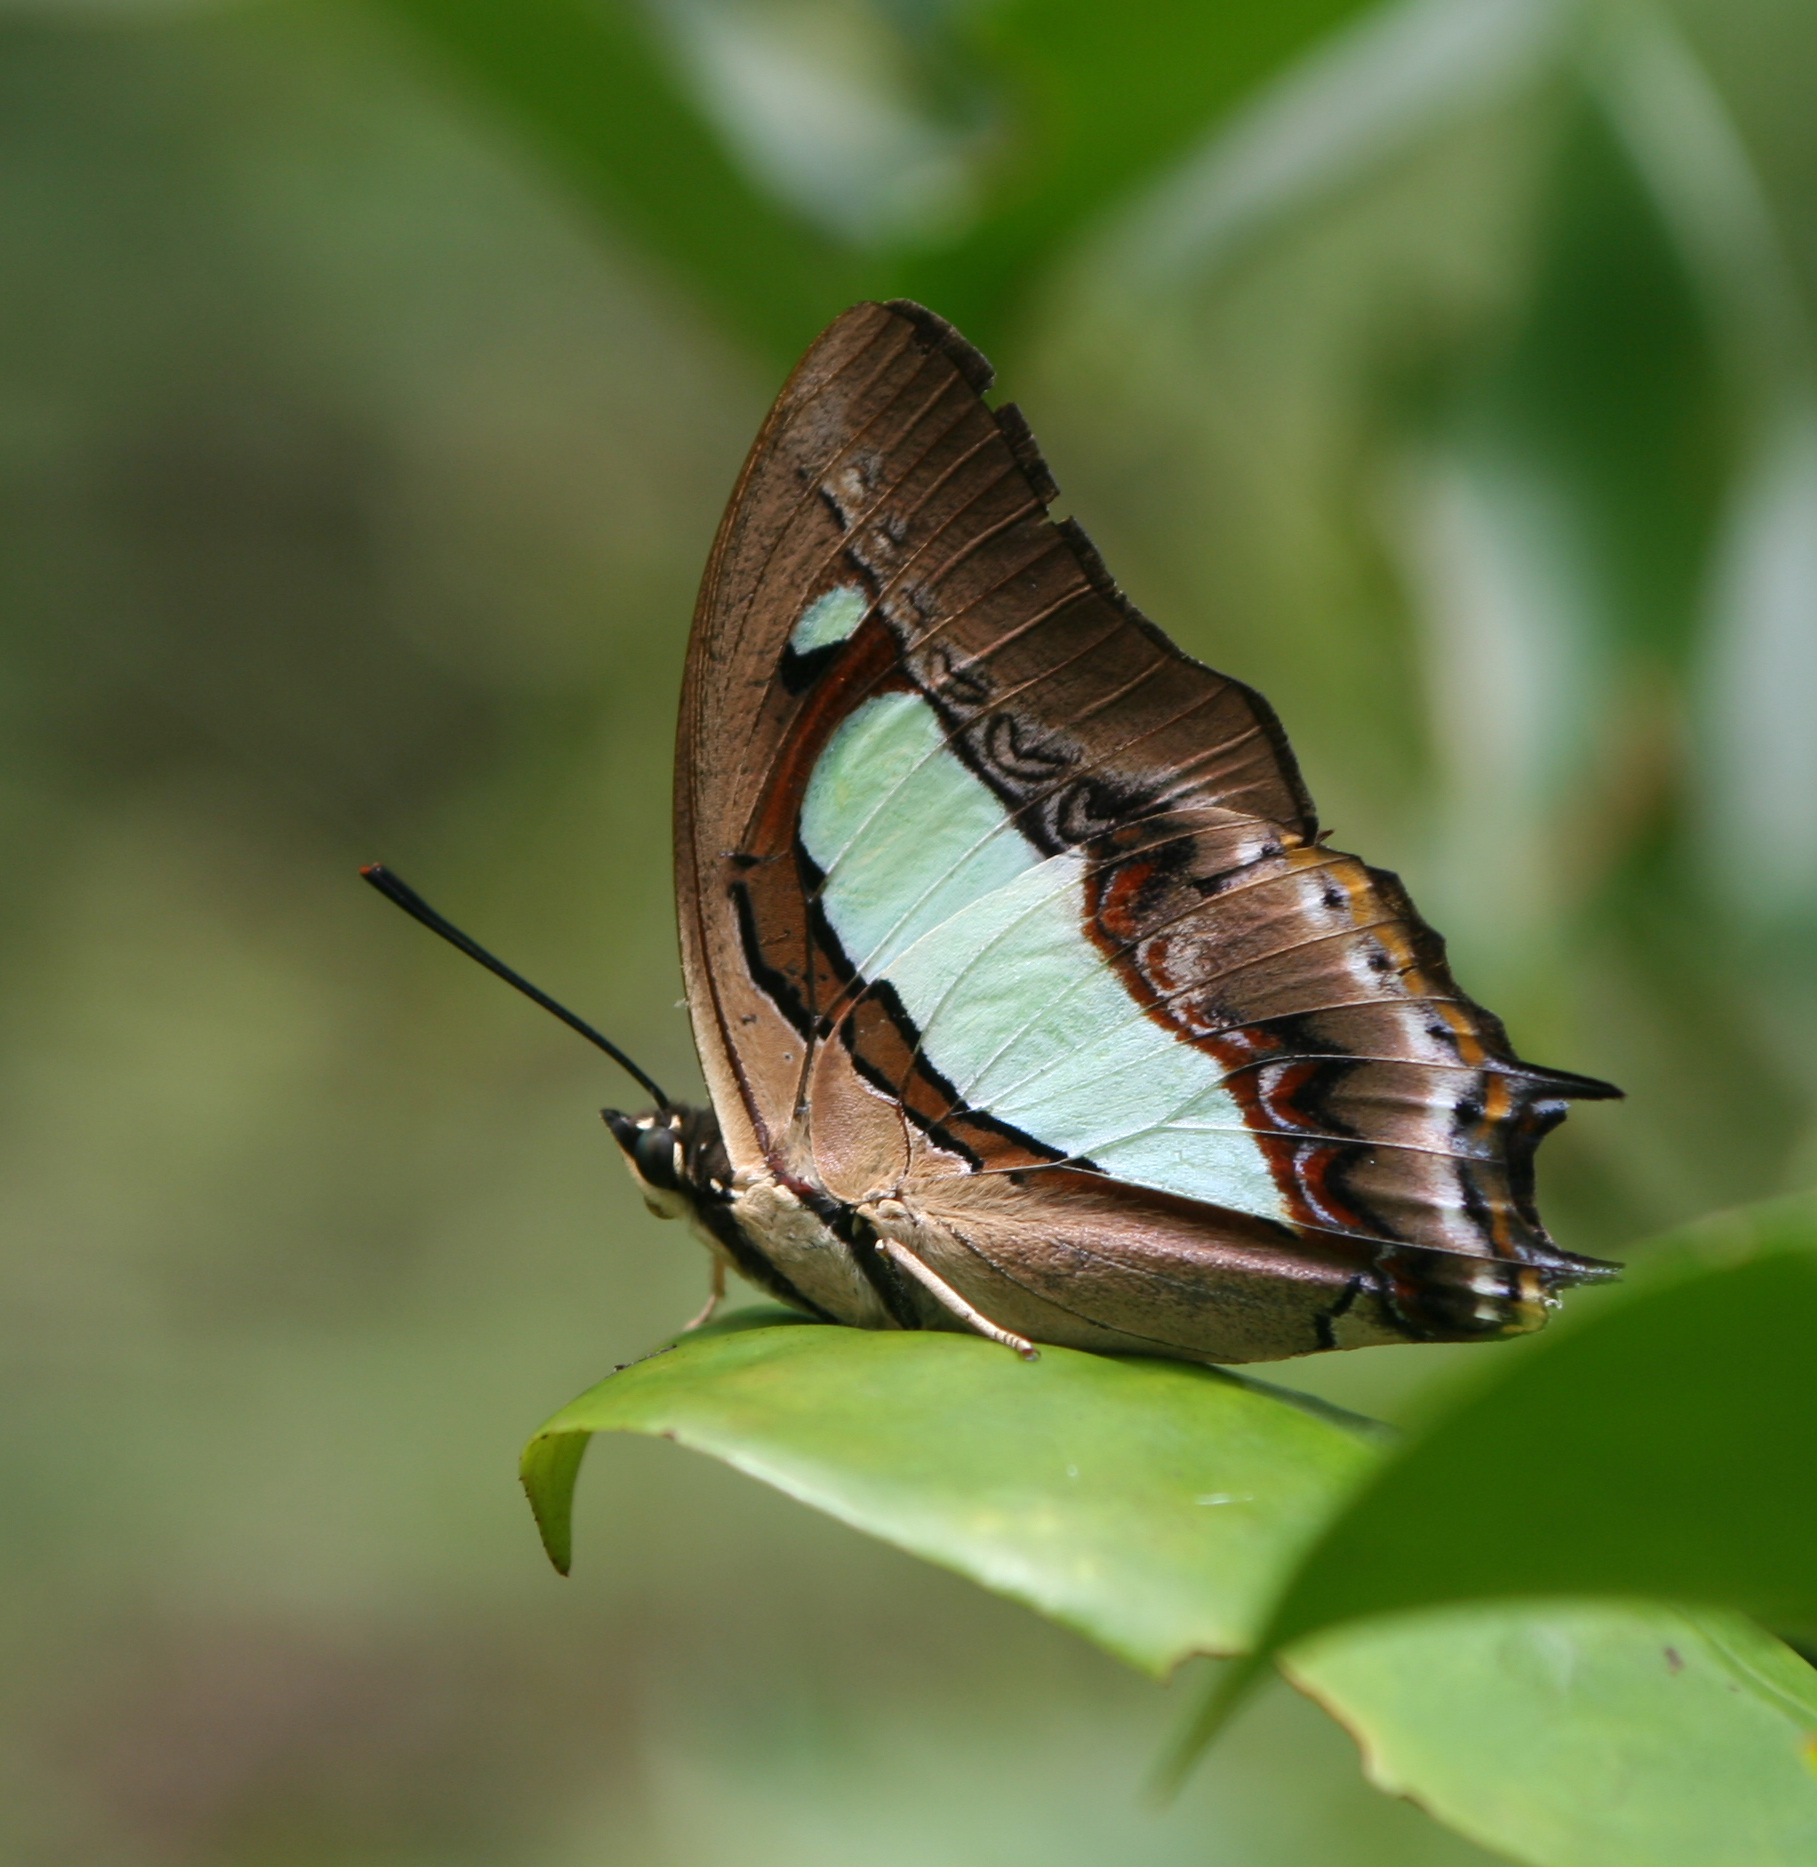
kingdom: Animalia
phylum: Arthropoda
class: Insecta
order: Lepidoptera
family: Nymphalidae
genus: Polyura
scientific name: Polyura athamas
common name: Common nawab
